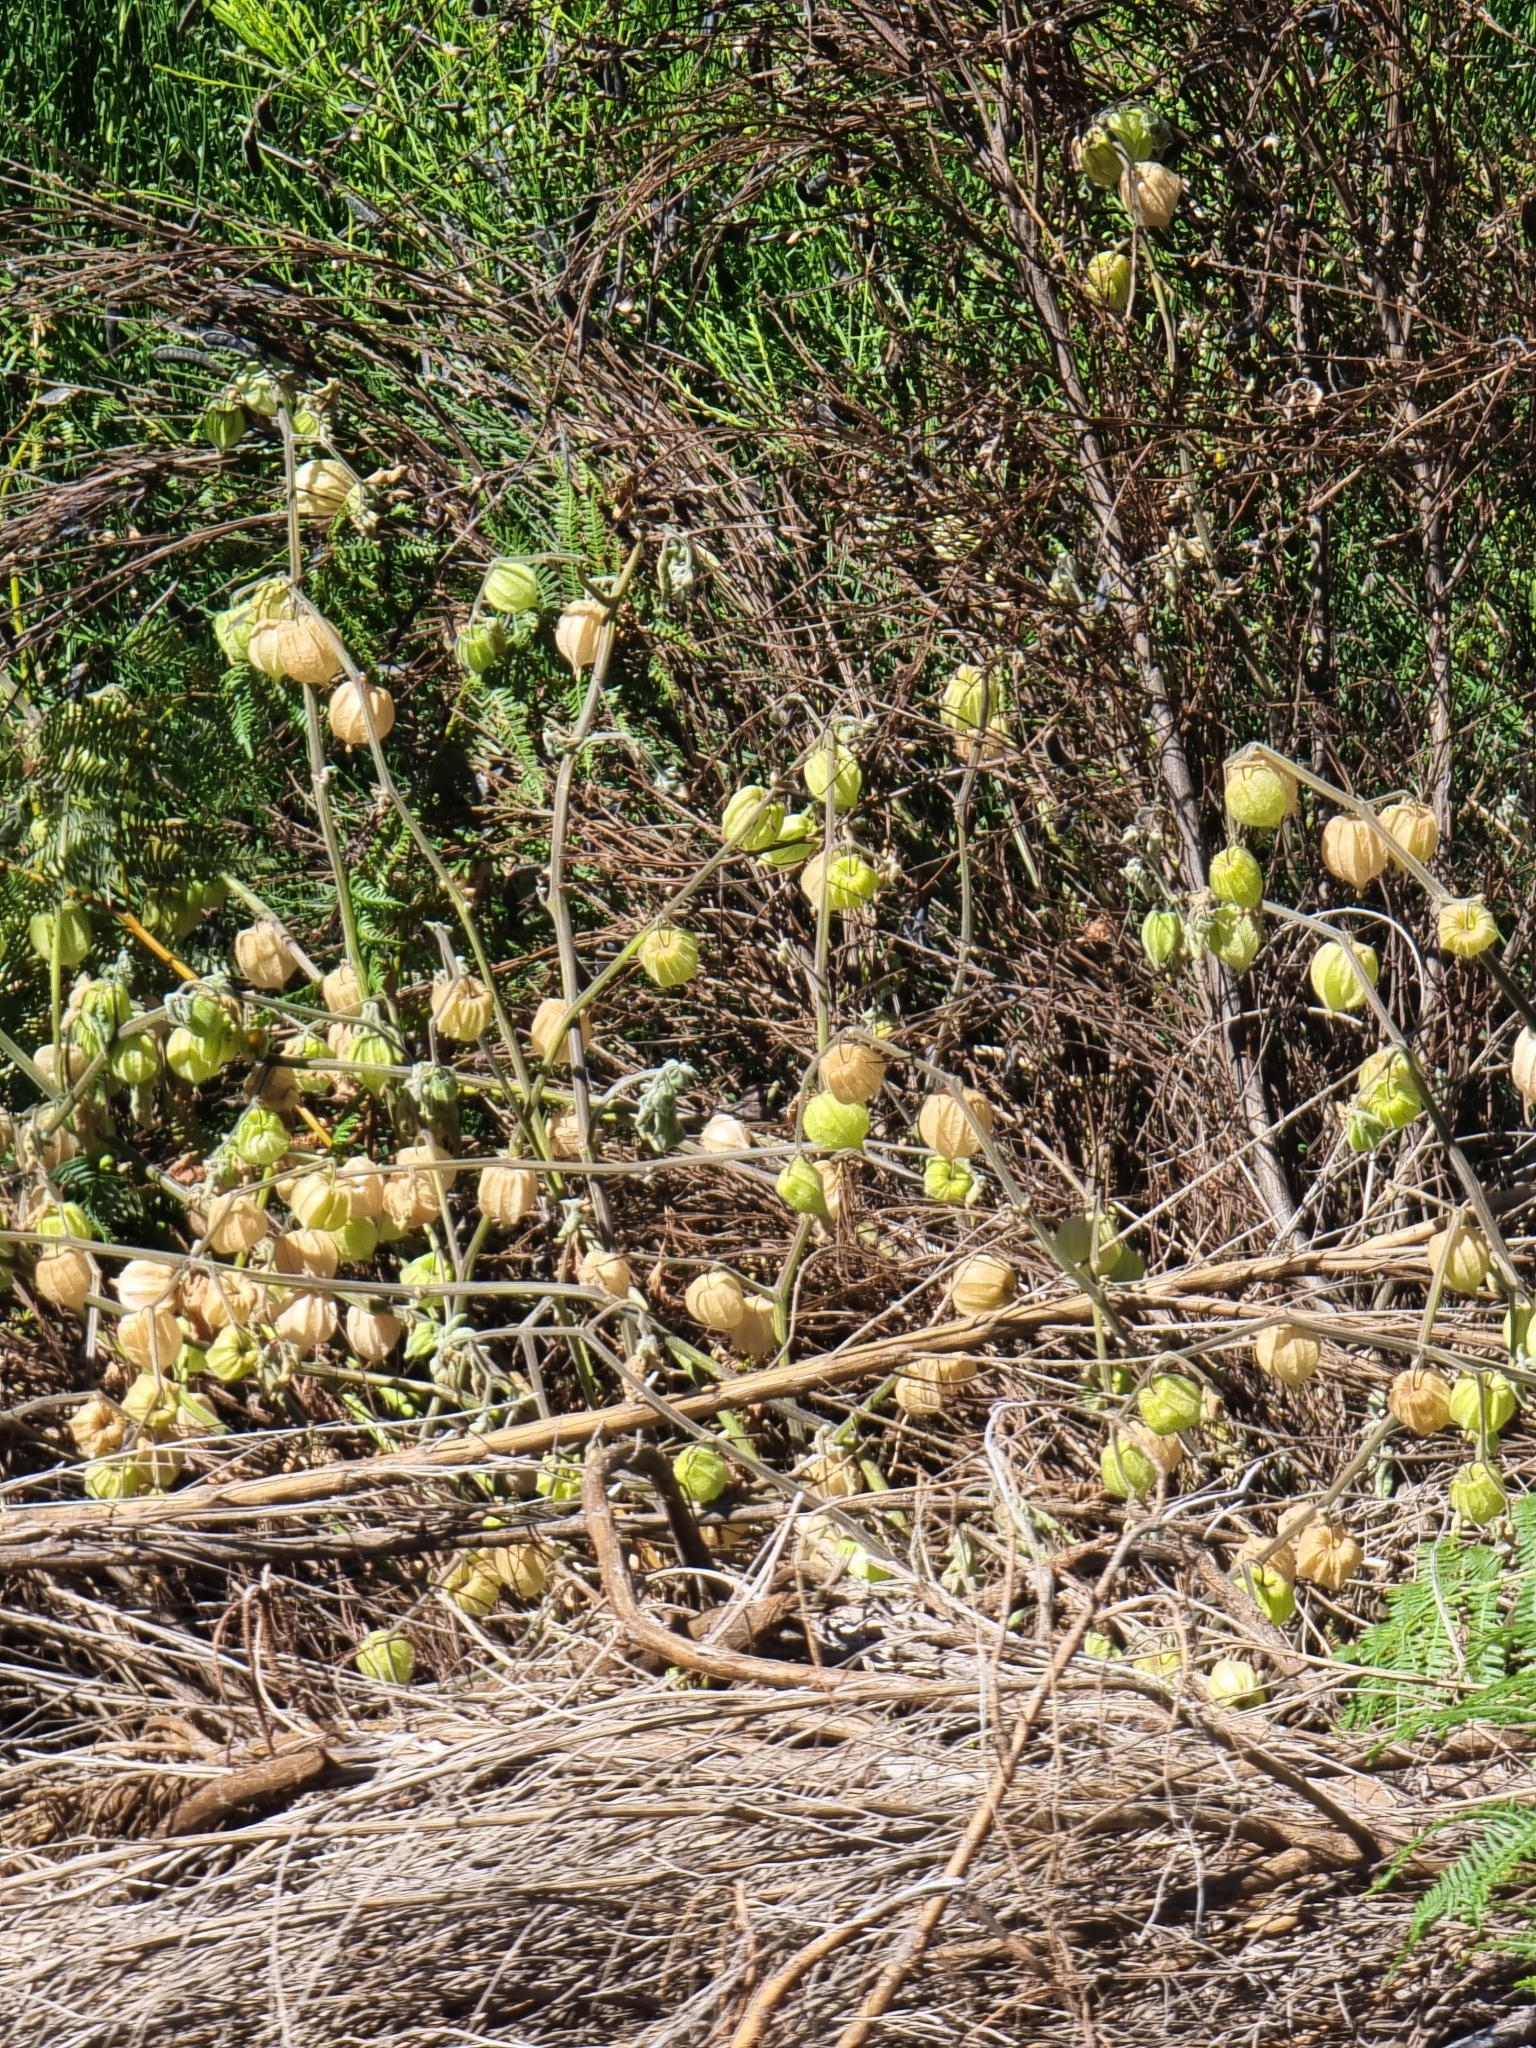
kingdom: Plantae
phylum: Tracheophyta
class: Magnoliopsida
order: Solanales
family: Solanaceae
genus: Physalis
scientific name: Physalis peruviana
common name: Cape-gooseberry
